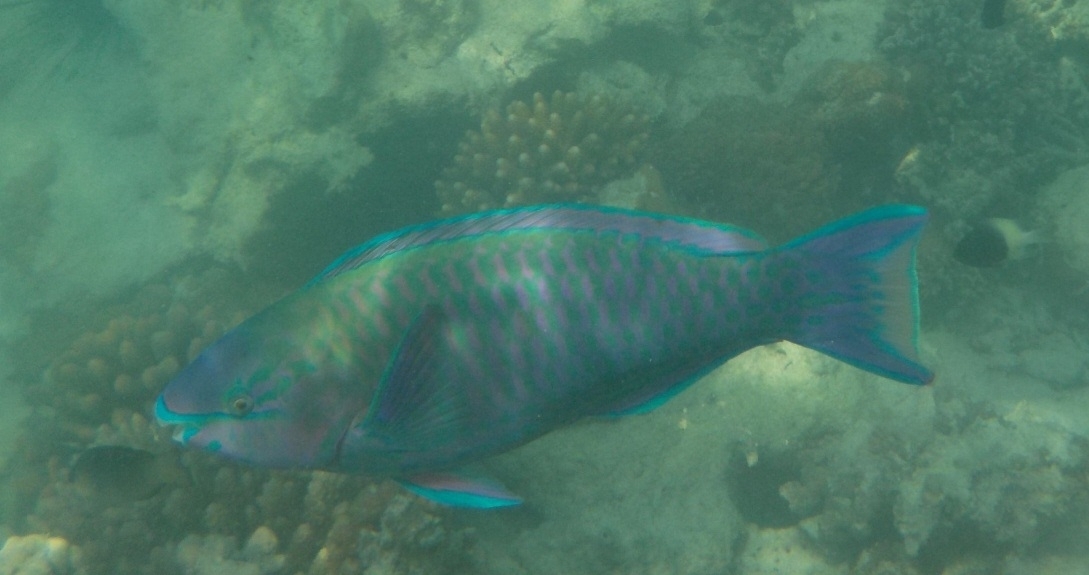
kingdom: Animalia
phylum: Chordata
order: Perciformes
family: Scaridae
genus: Scarus
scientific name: Scarus psittacus
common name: Palenose parrotfish
